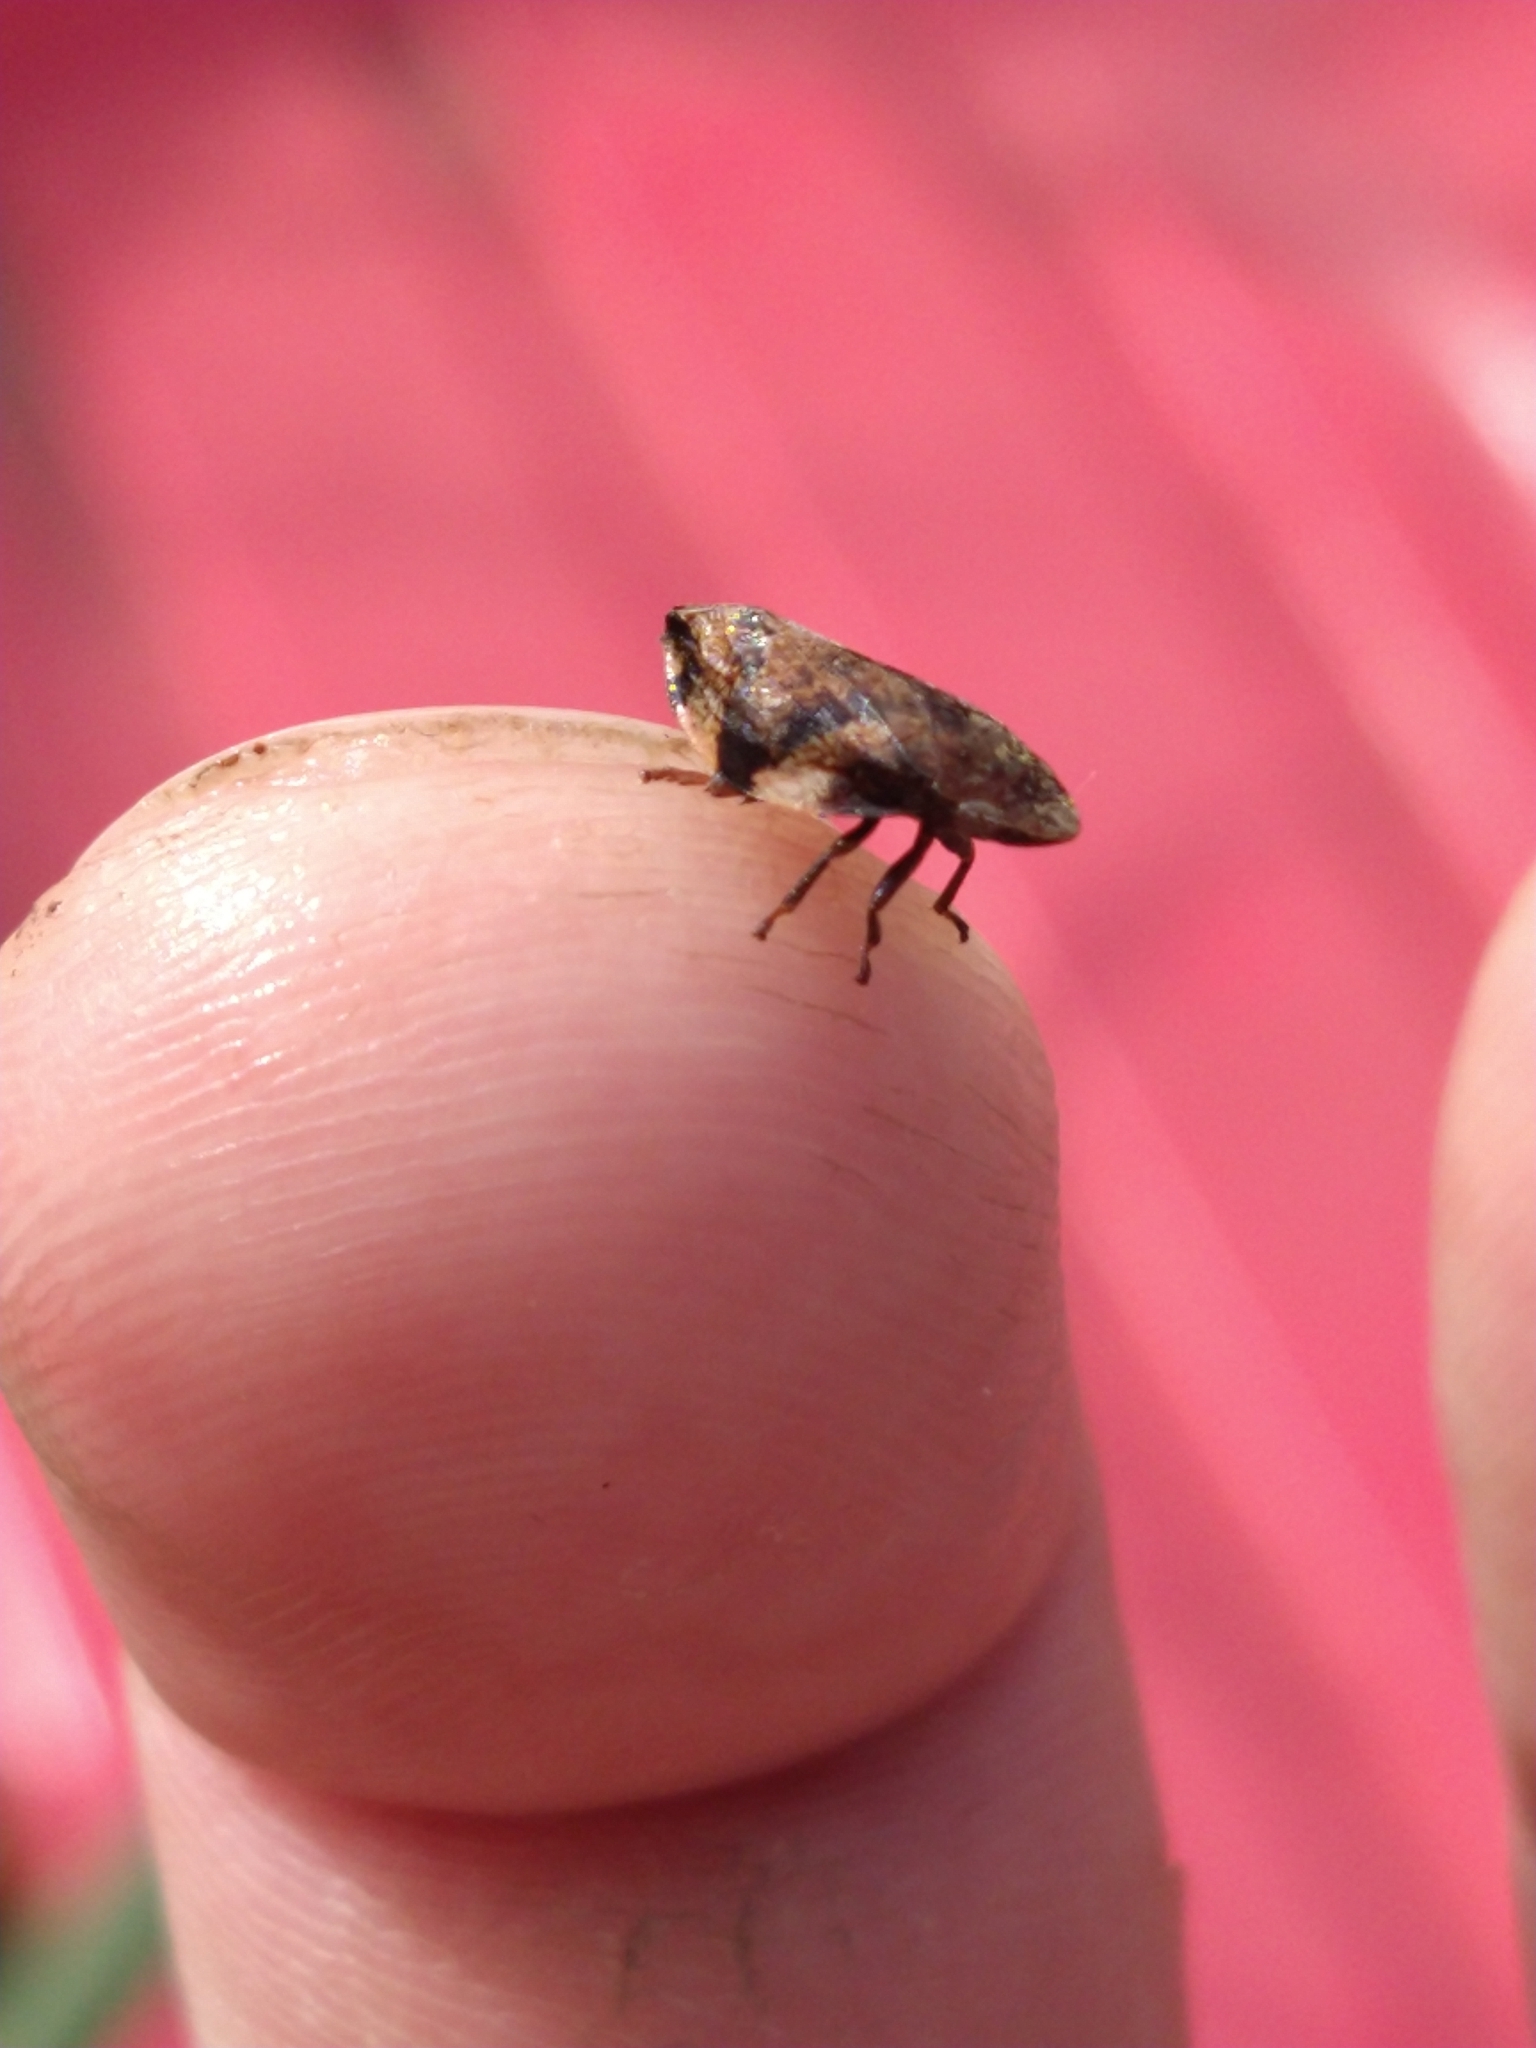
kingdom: Animalia
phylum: Arthropoda
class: Insecta
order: Hemiptera
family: Aphrophoridae
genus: Philaenus
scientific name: Philaenus spumarius
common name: Meadow spittlebug
